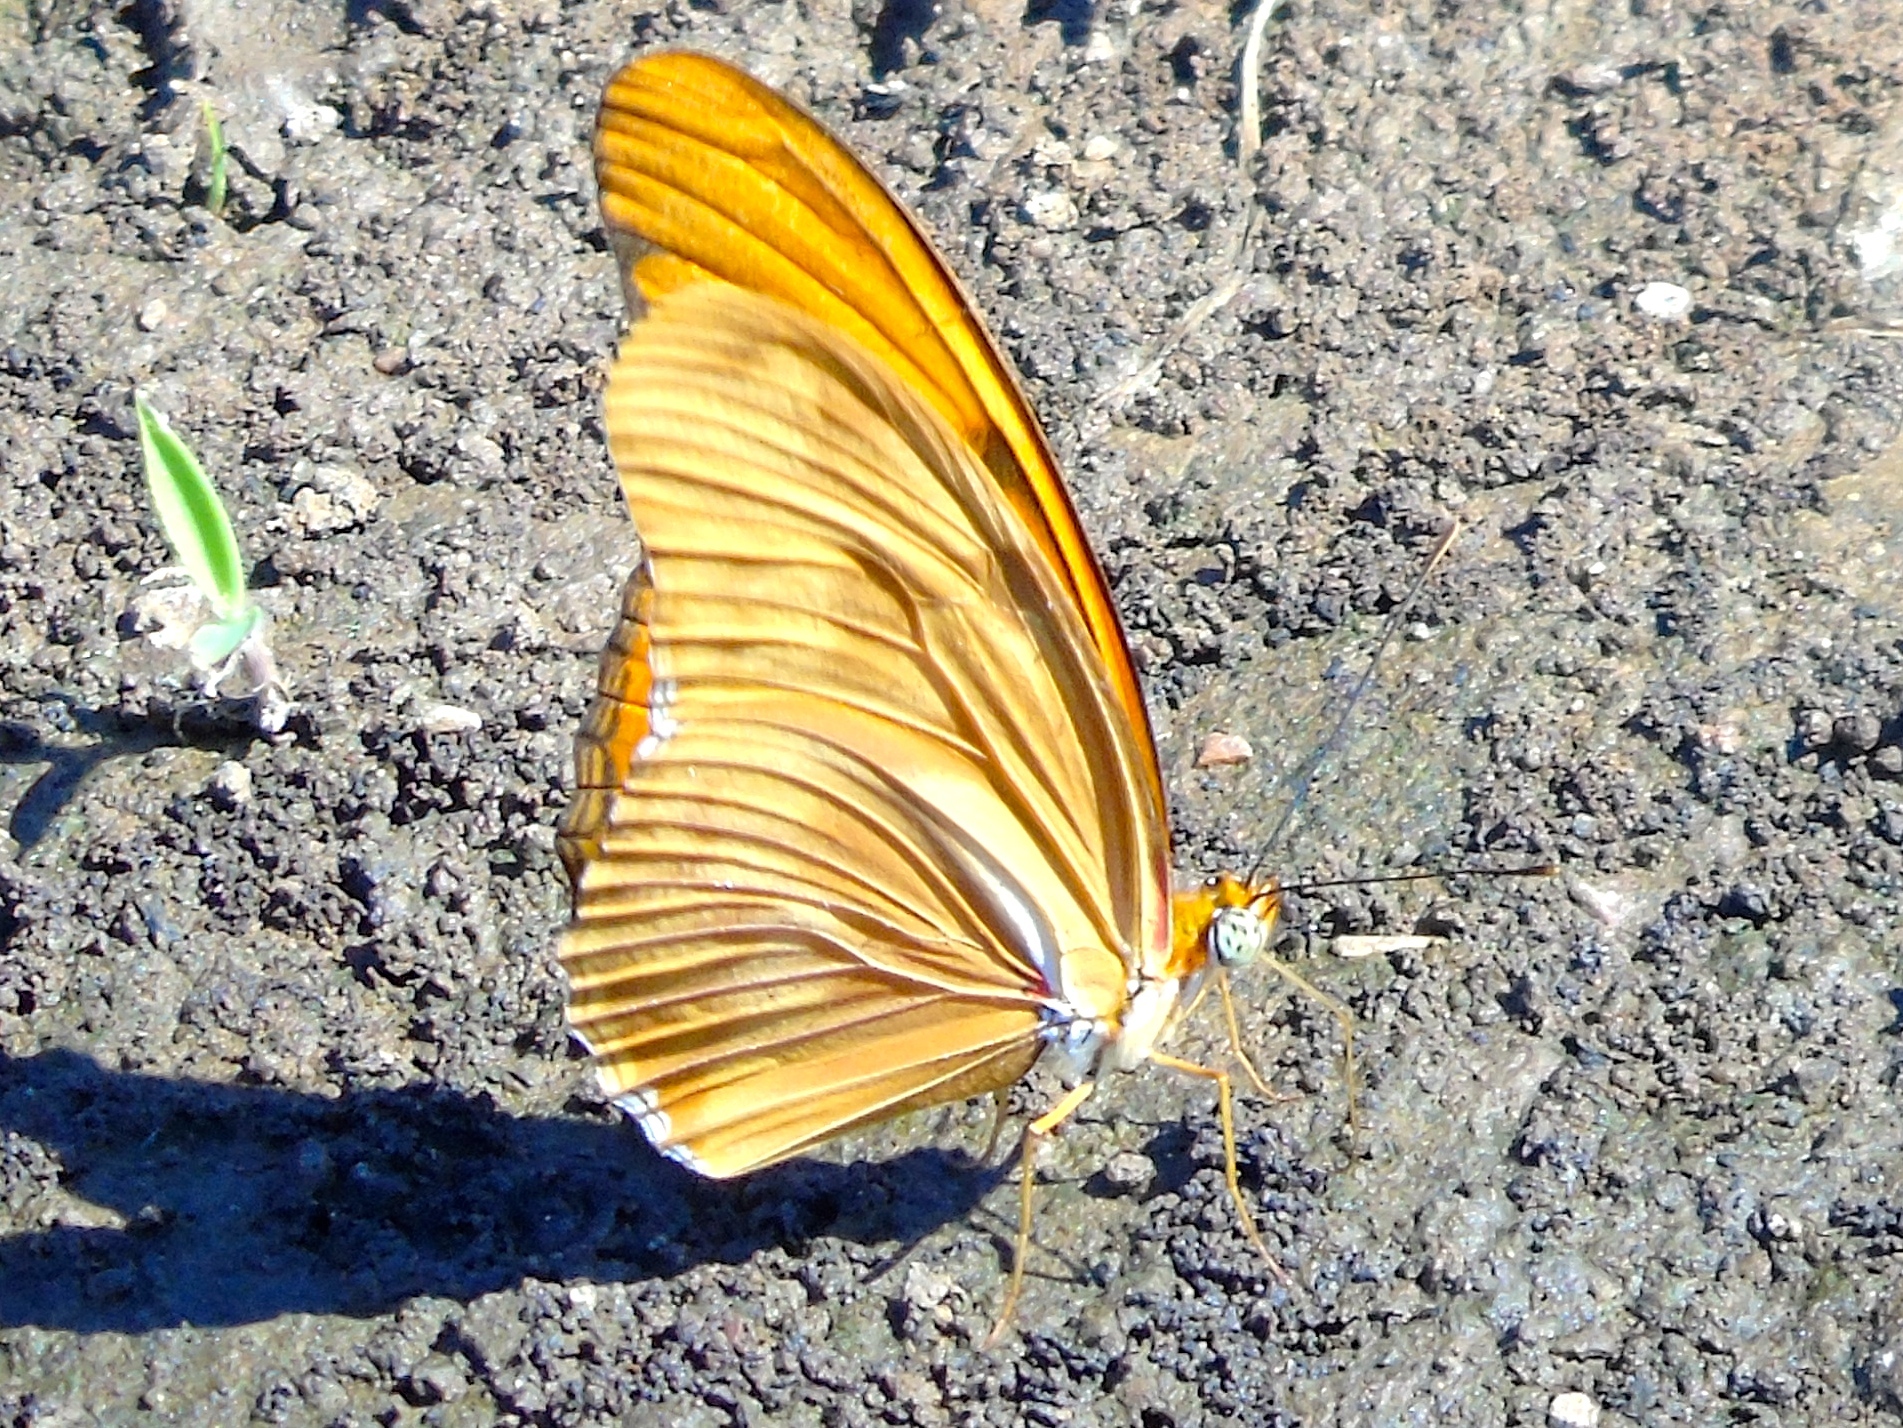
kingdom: Animalia
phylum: Arthropoda
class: Insecta
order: Lepidoptera
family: Nymphalidae
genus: Dryas
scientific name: Dryas iulia
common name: Flambeau
